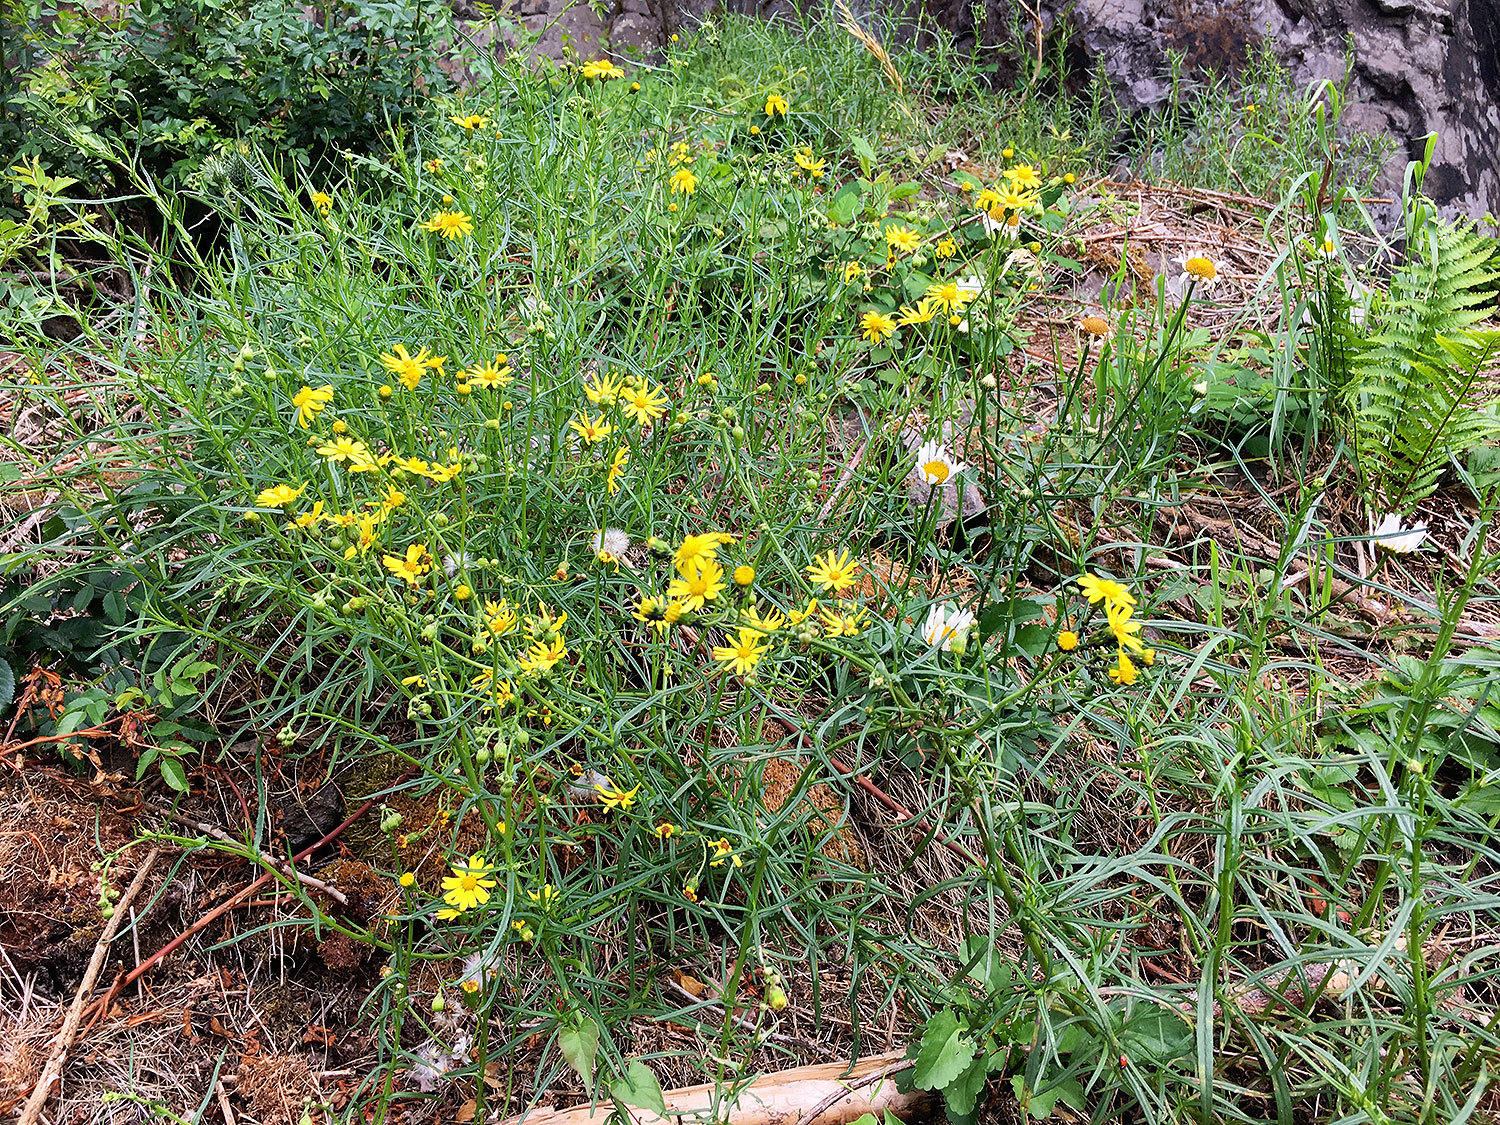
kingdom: Plantae
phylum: Tracheophyta
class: Magnoliopsida
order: Asterales
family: Asteraceae
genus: Senecio
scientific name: Senecio inaequidens
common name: Narrow-leaved ragwort
